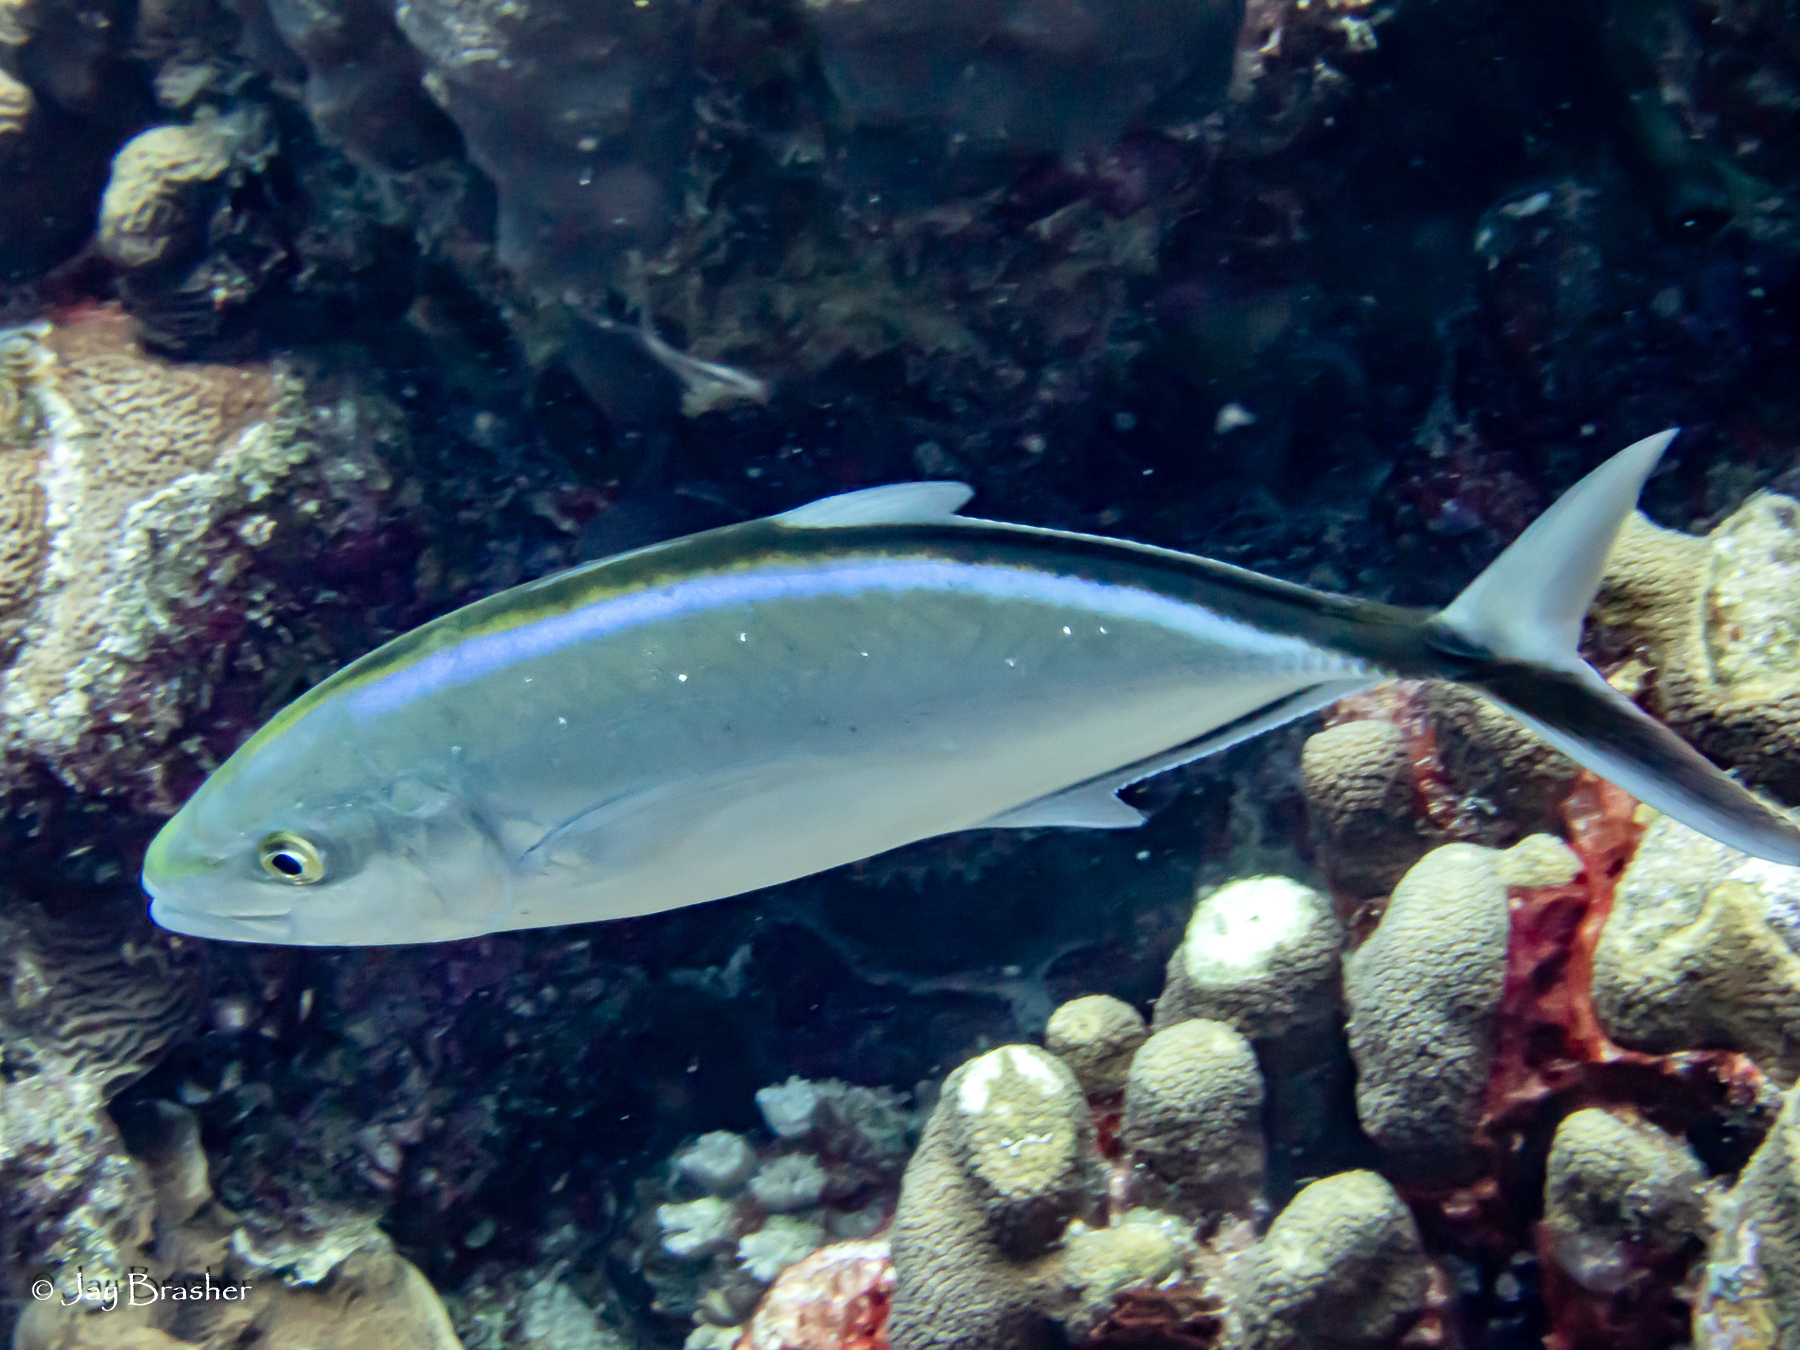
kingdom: Animalia
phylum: Chordata
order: Perciformes
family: Carangidae
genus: Caranx
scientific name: Caranx ruber
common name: Bar jack
